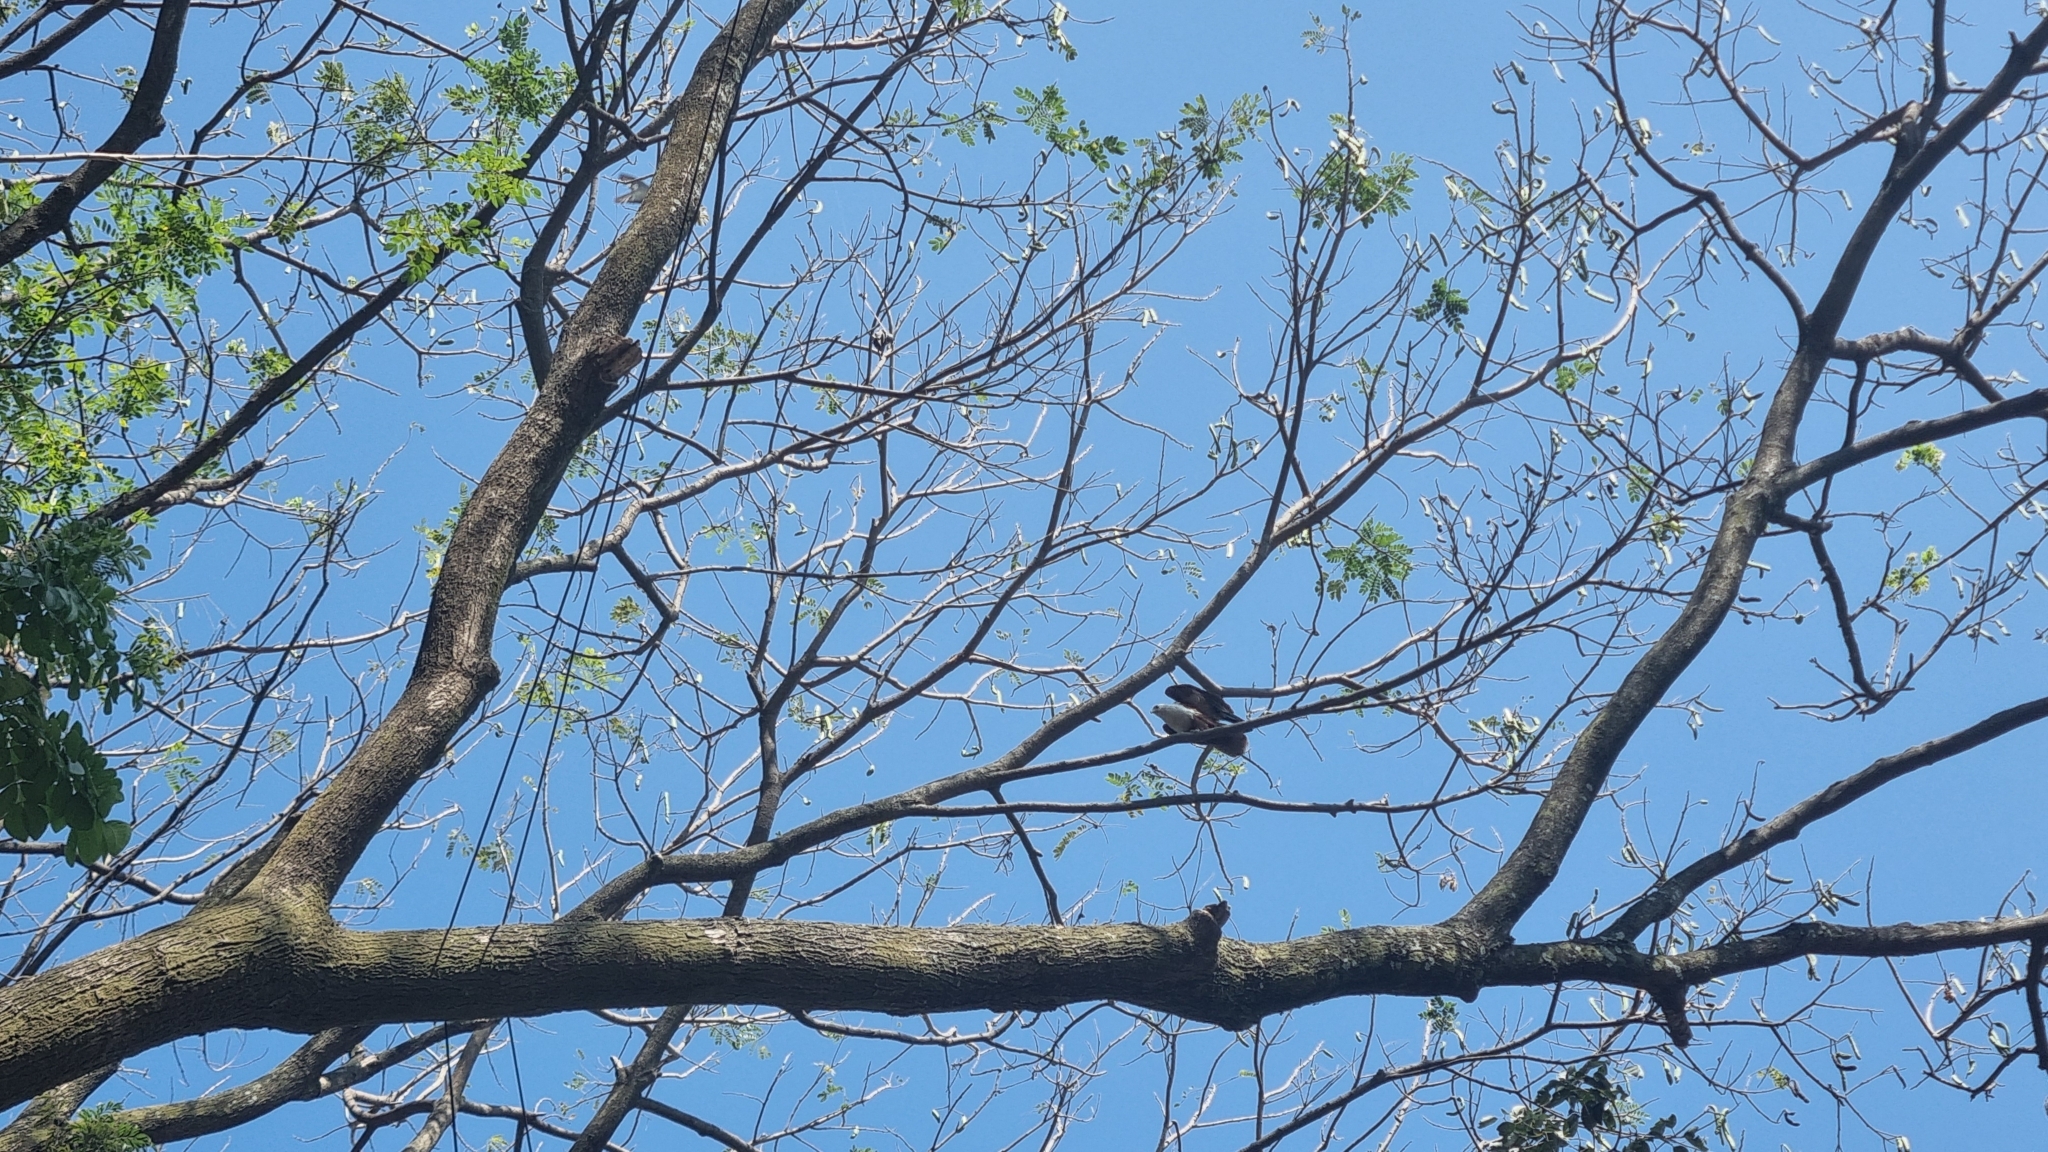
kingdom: Animalia
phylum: Chordata
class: Aves
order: Accipitriformes
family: Accipitridae
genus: Haliastur
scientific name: Haliastur indus
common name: Brahminy kite
